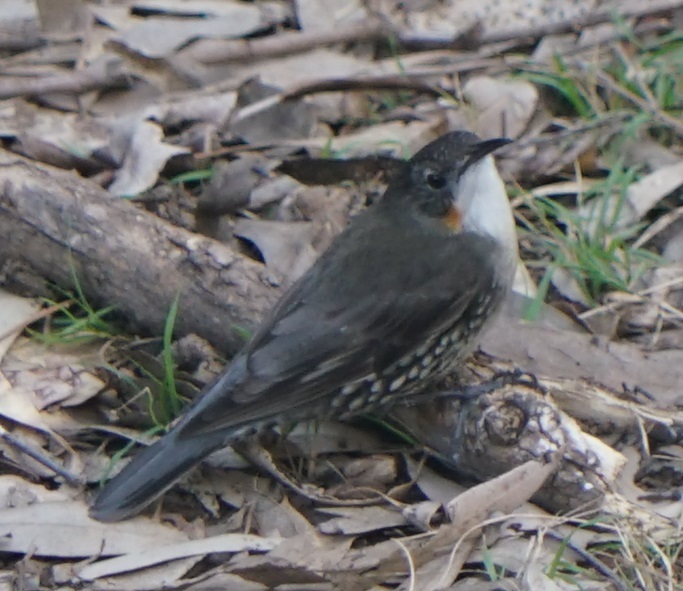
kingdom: Animalia
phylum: Chordata
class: Aves
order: Passeriformes
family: Climacteridae
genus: Cormobates
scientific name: Cormobates leucophaea
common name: White-throated treecreeper
